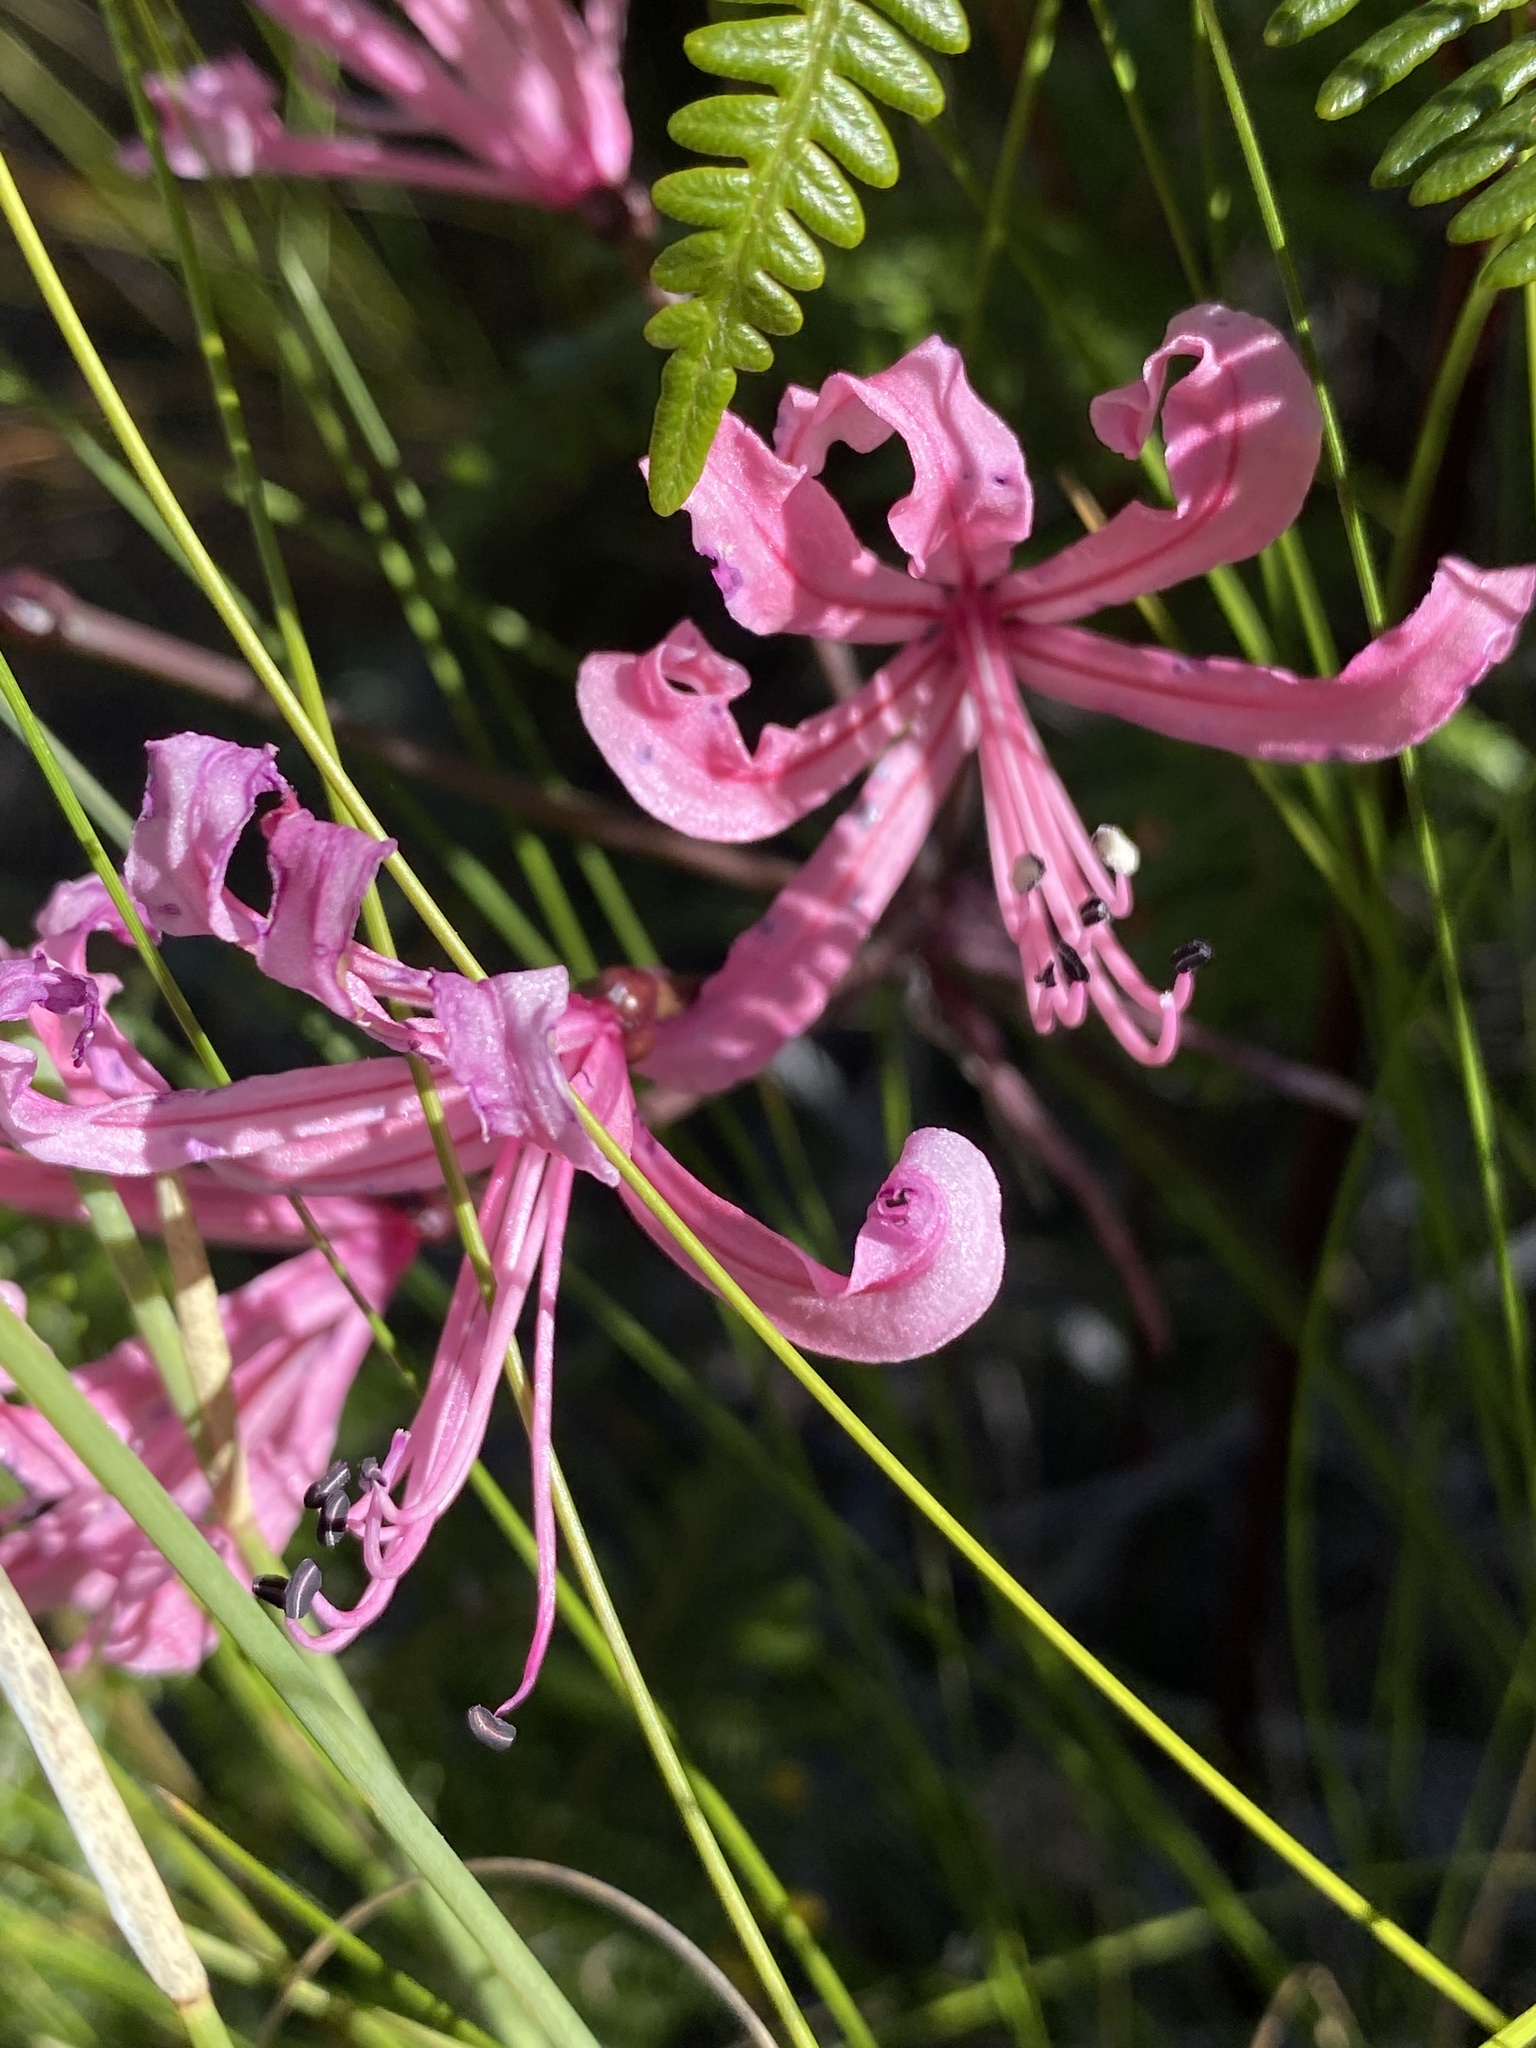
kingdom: Plantae
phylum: Tracheophyta
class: Liliopsida
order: Asparagales
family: Amaryllidaceae
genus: Nerine
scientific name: Nerine humilis
